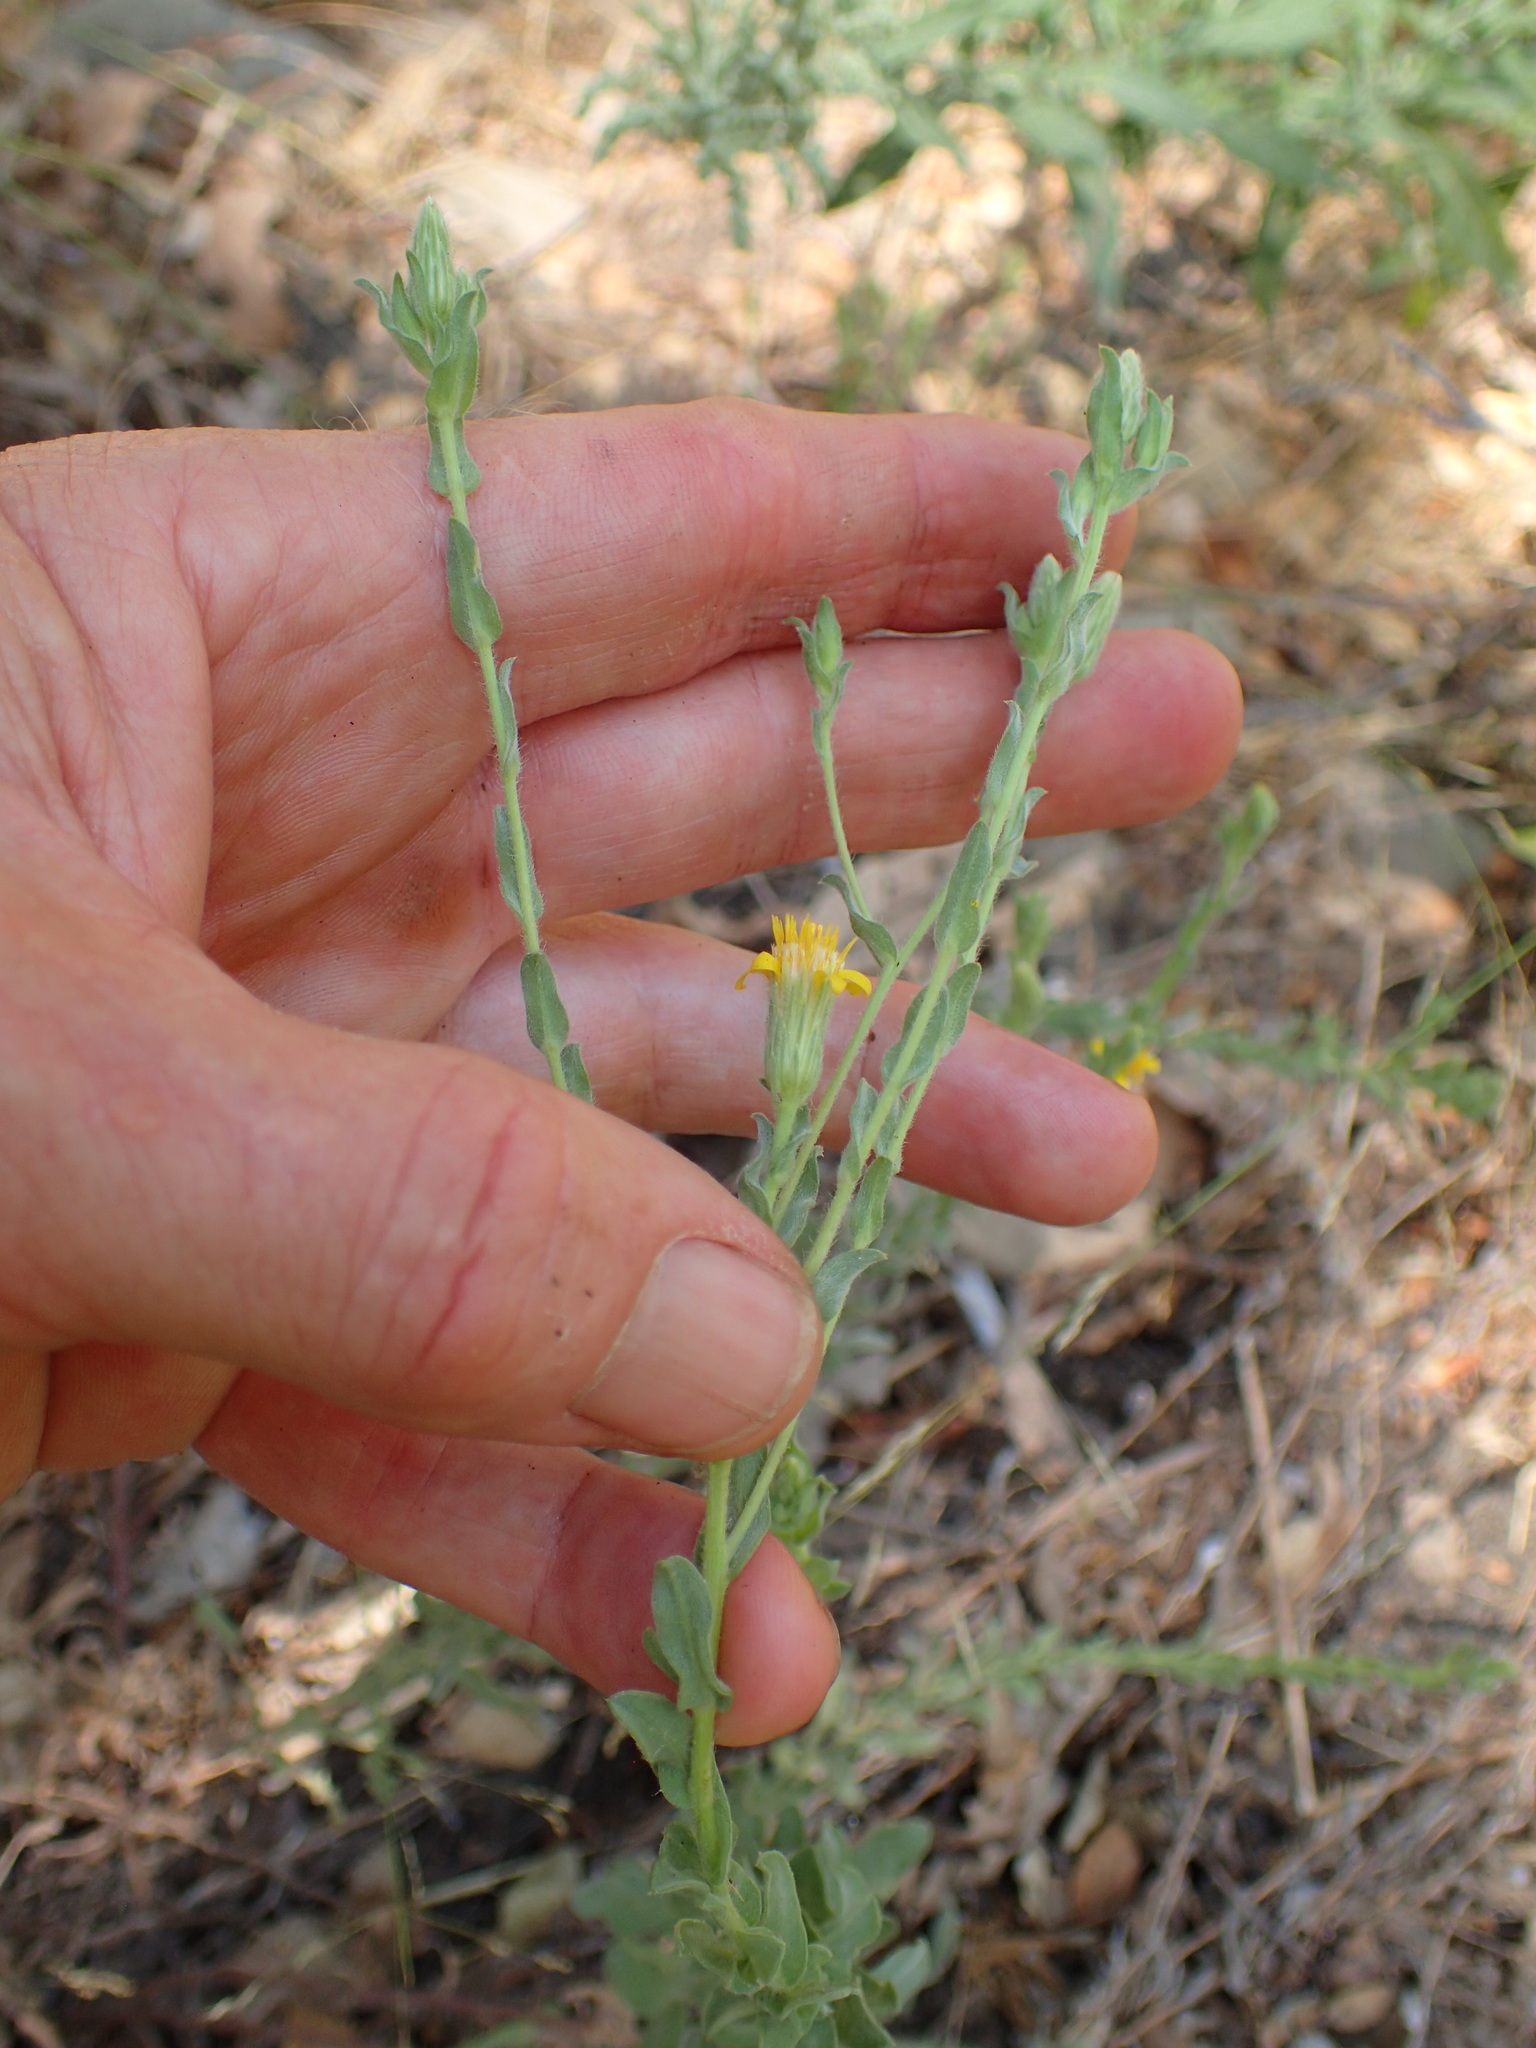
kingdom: Plantae
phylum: Tracheophyta
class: Magnoliopsida
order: Asterales
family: Asteraceae
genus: Heterotheca
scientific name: Heterotheca sessiliflora
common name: Sessile-flower golden-aster
